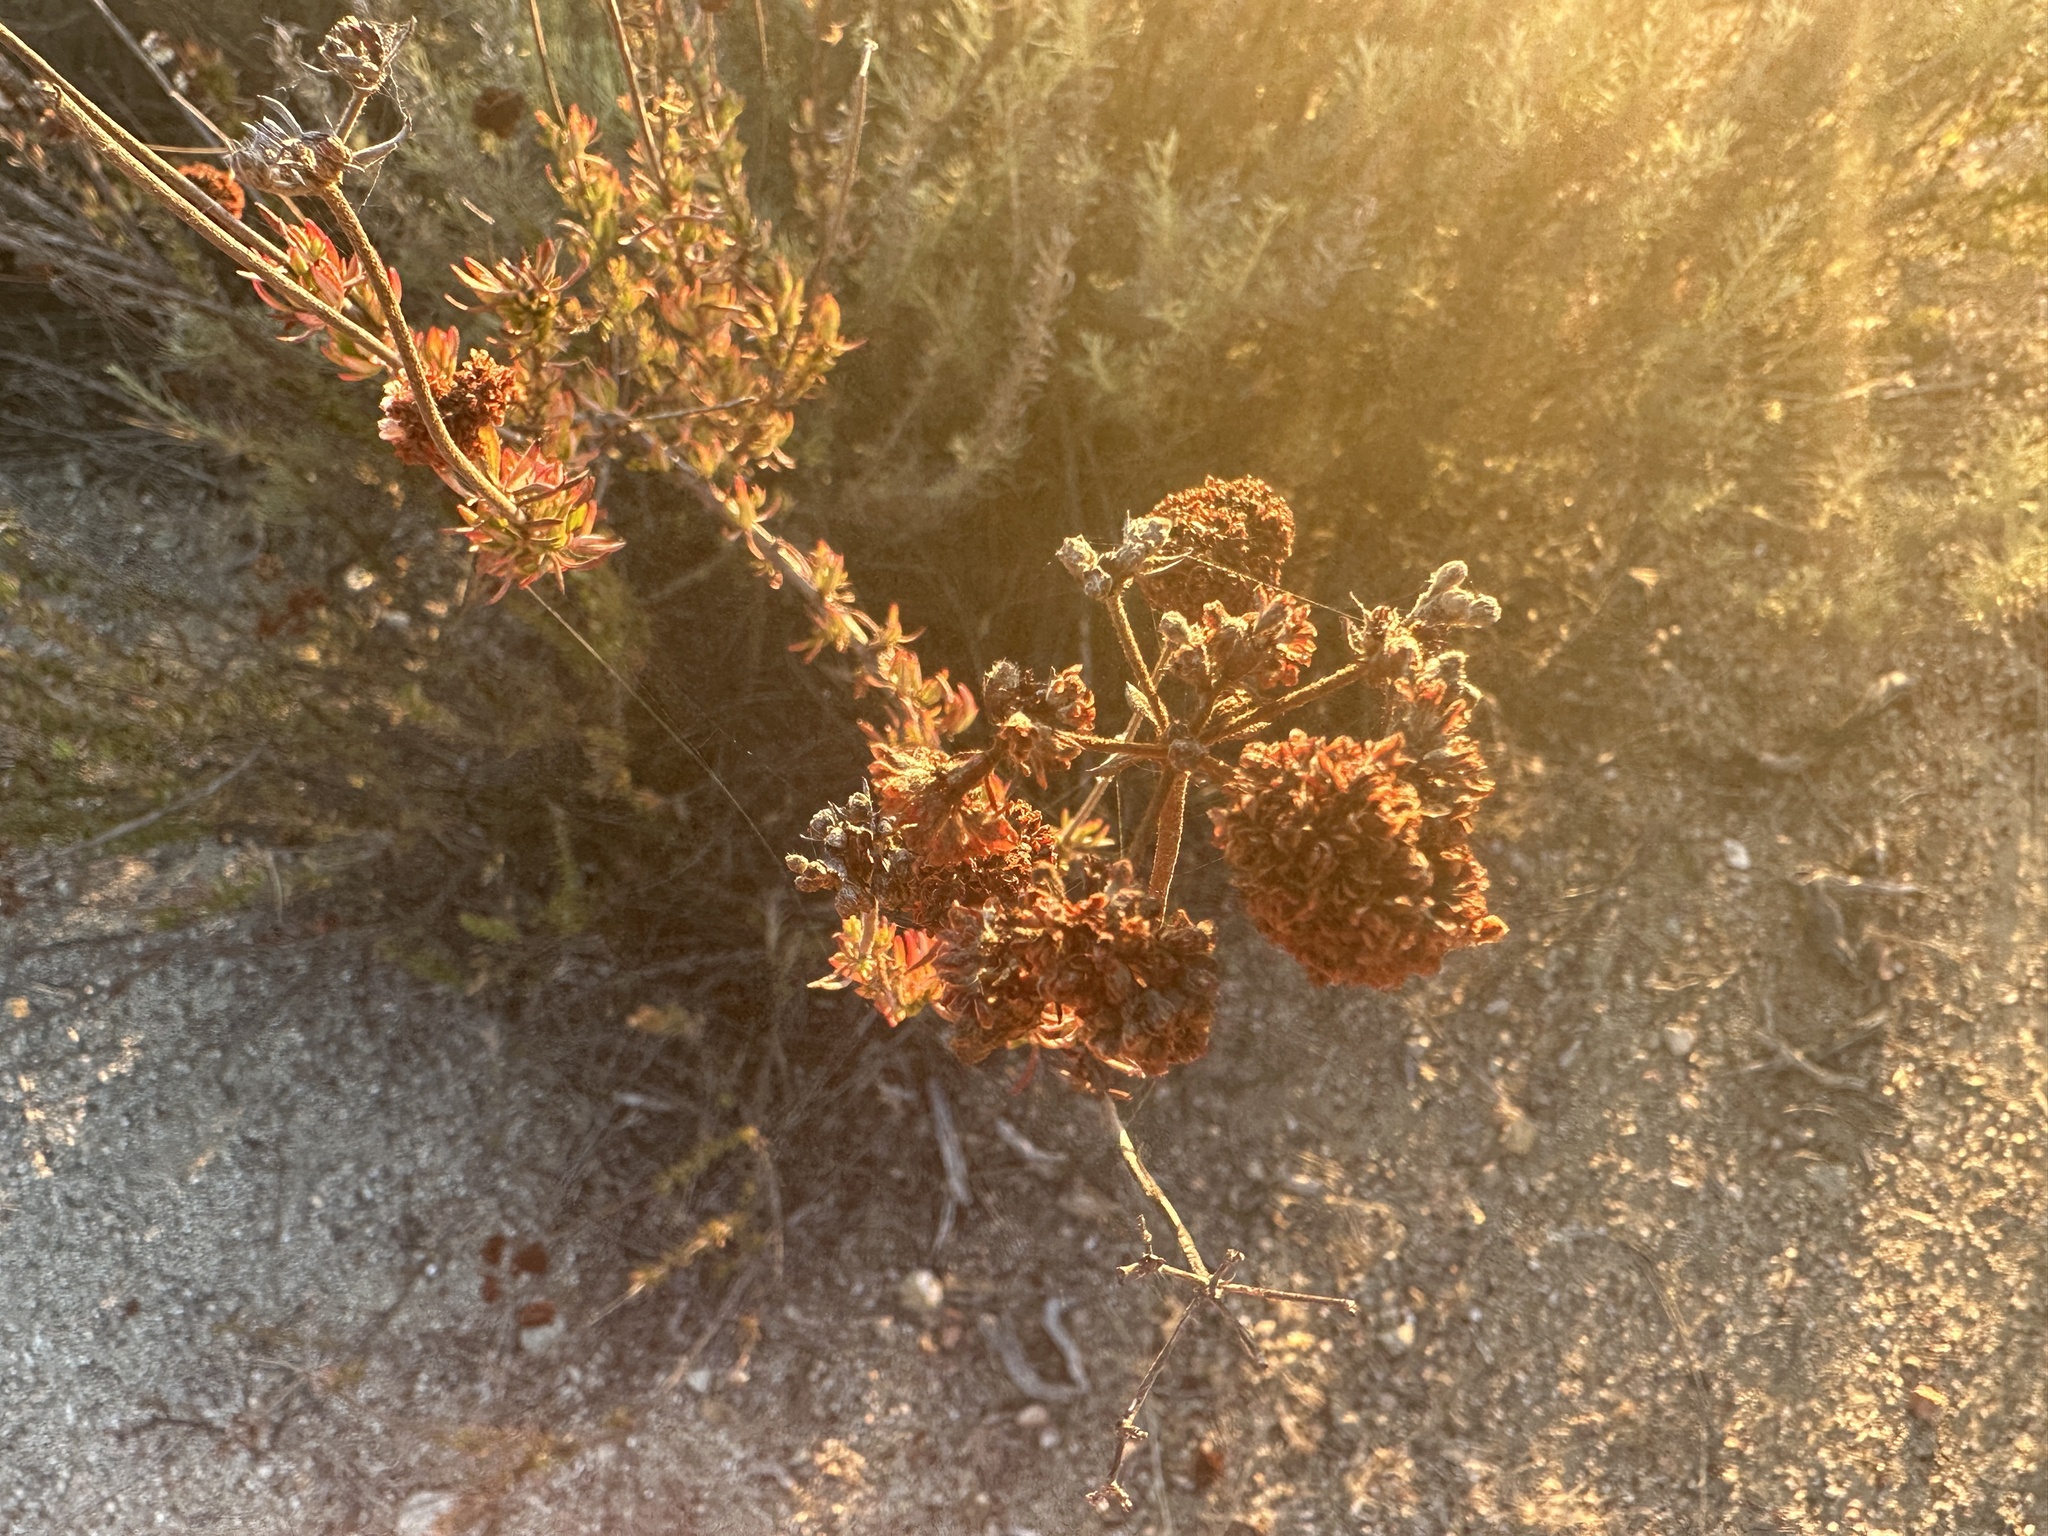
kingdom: Plantae
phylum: Tracheophyta
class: Magnoliopsida
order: Caryophyllales
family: Polygonaceae
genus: Eriogonum
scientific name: Eriogonum fasciculatum
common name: California wild buckwheat
